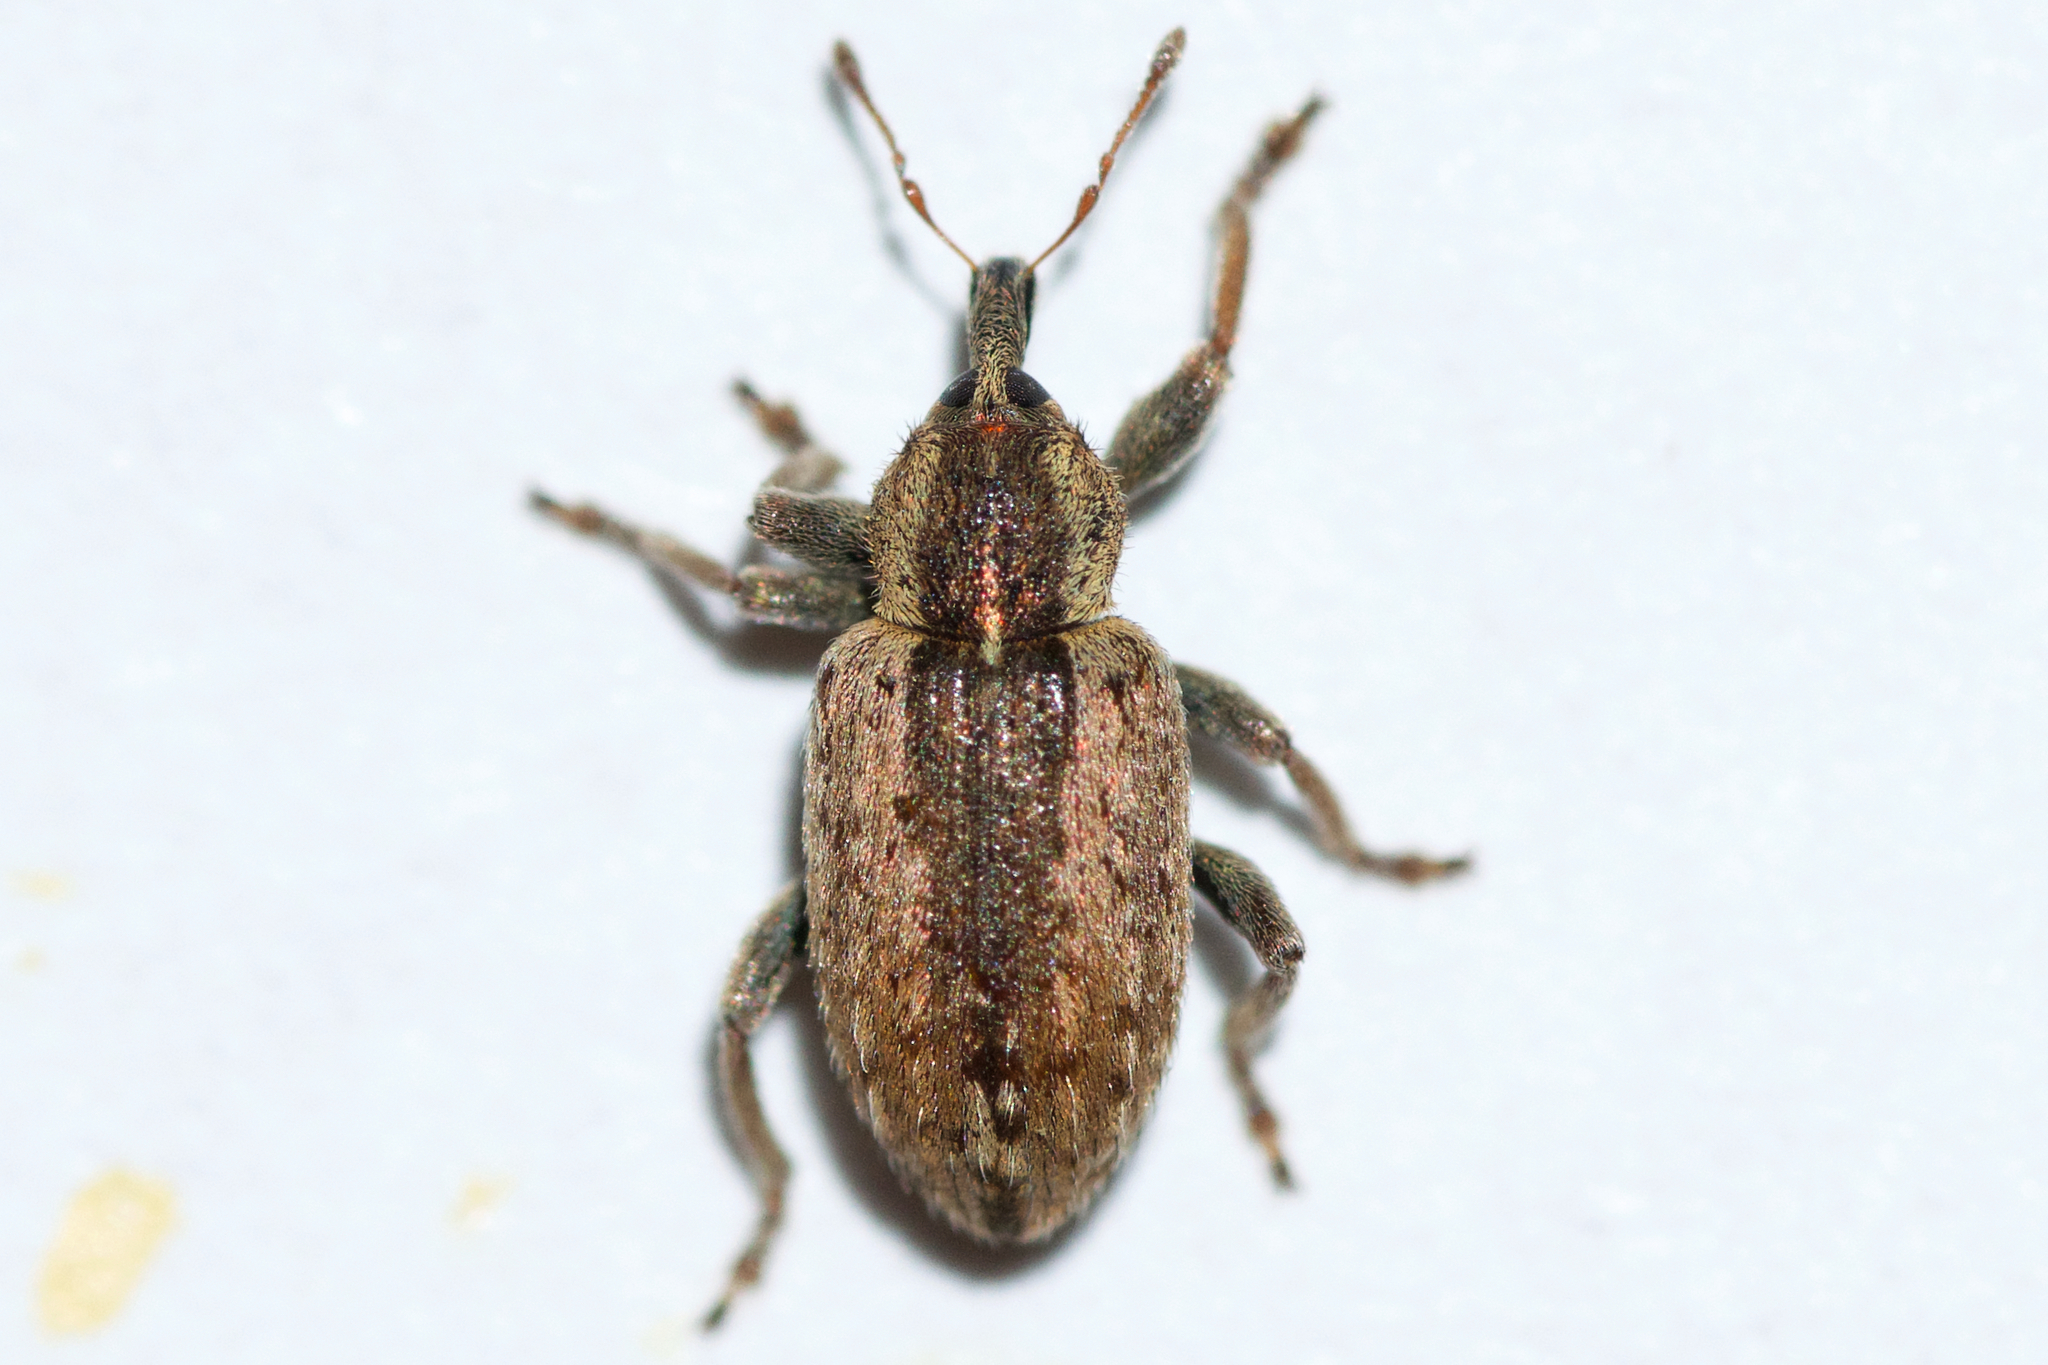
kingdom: Animalia
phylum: Arthropoda
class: Insecta
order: Coleoptera
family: Curculionidae
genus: Hypera
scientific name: Hypera postica
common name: Weevil
